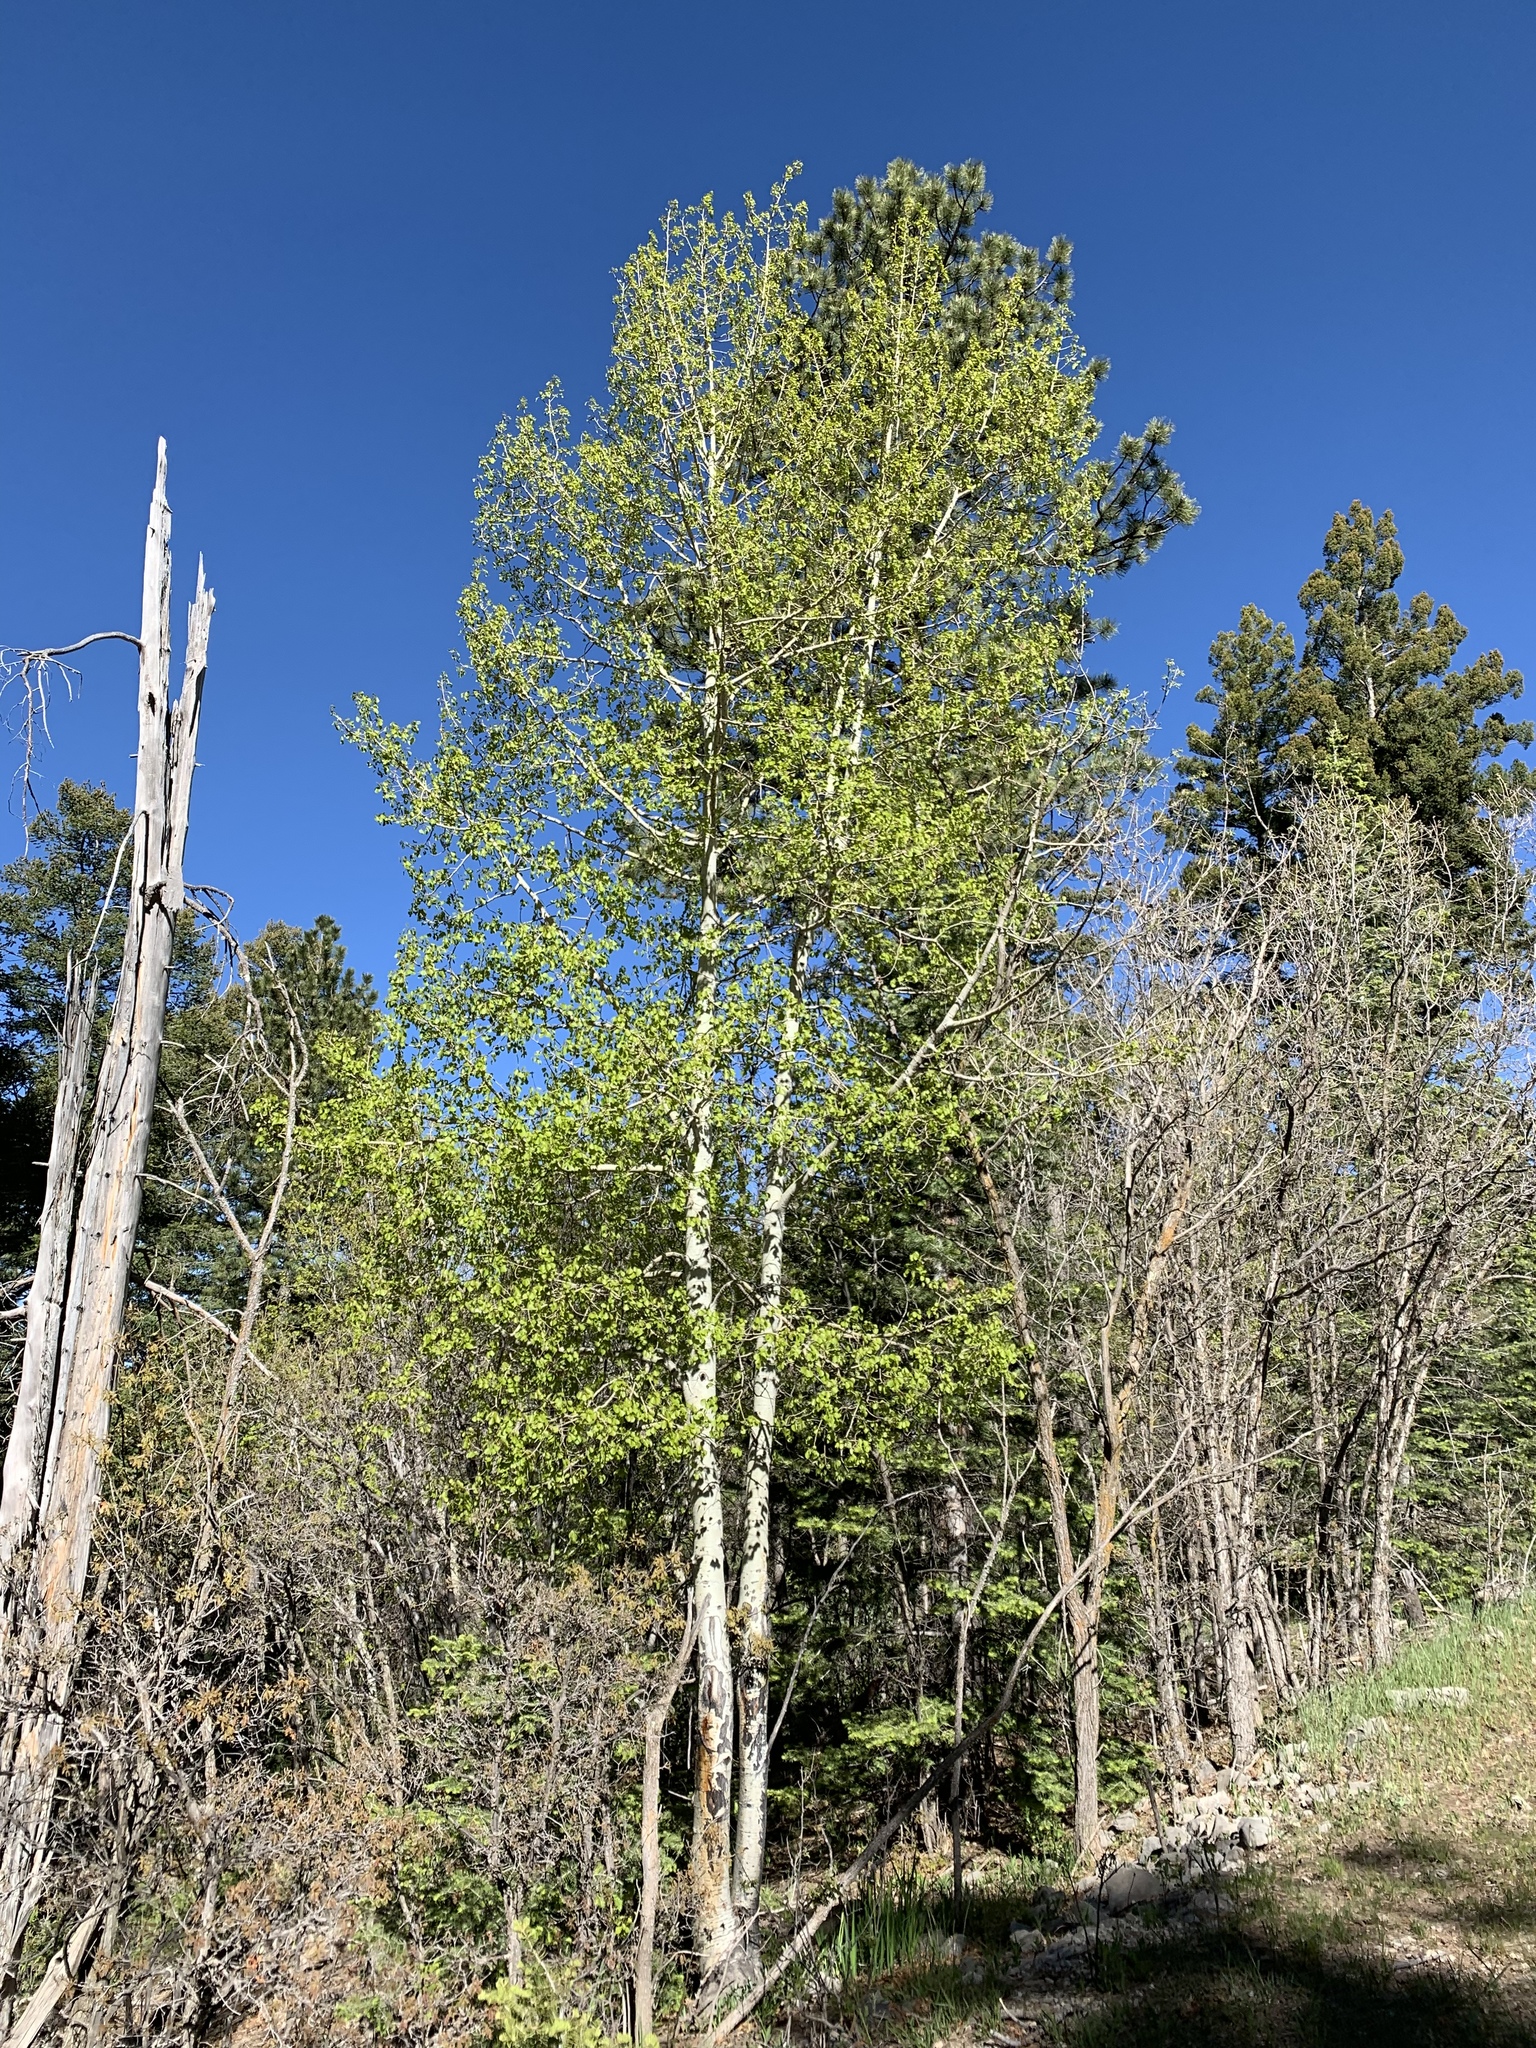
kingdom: Plantae
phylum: Tracheophyta
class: Magnoliopsida
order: Malpighiales
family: Salicaceae
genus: Populus
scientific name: Populus tremuloides
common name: Quaking aspen
